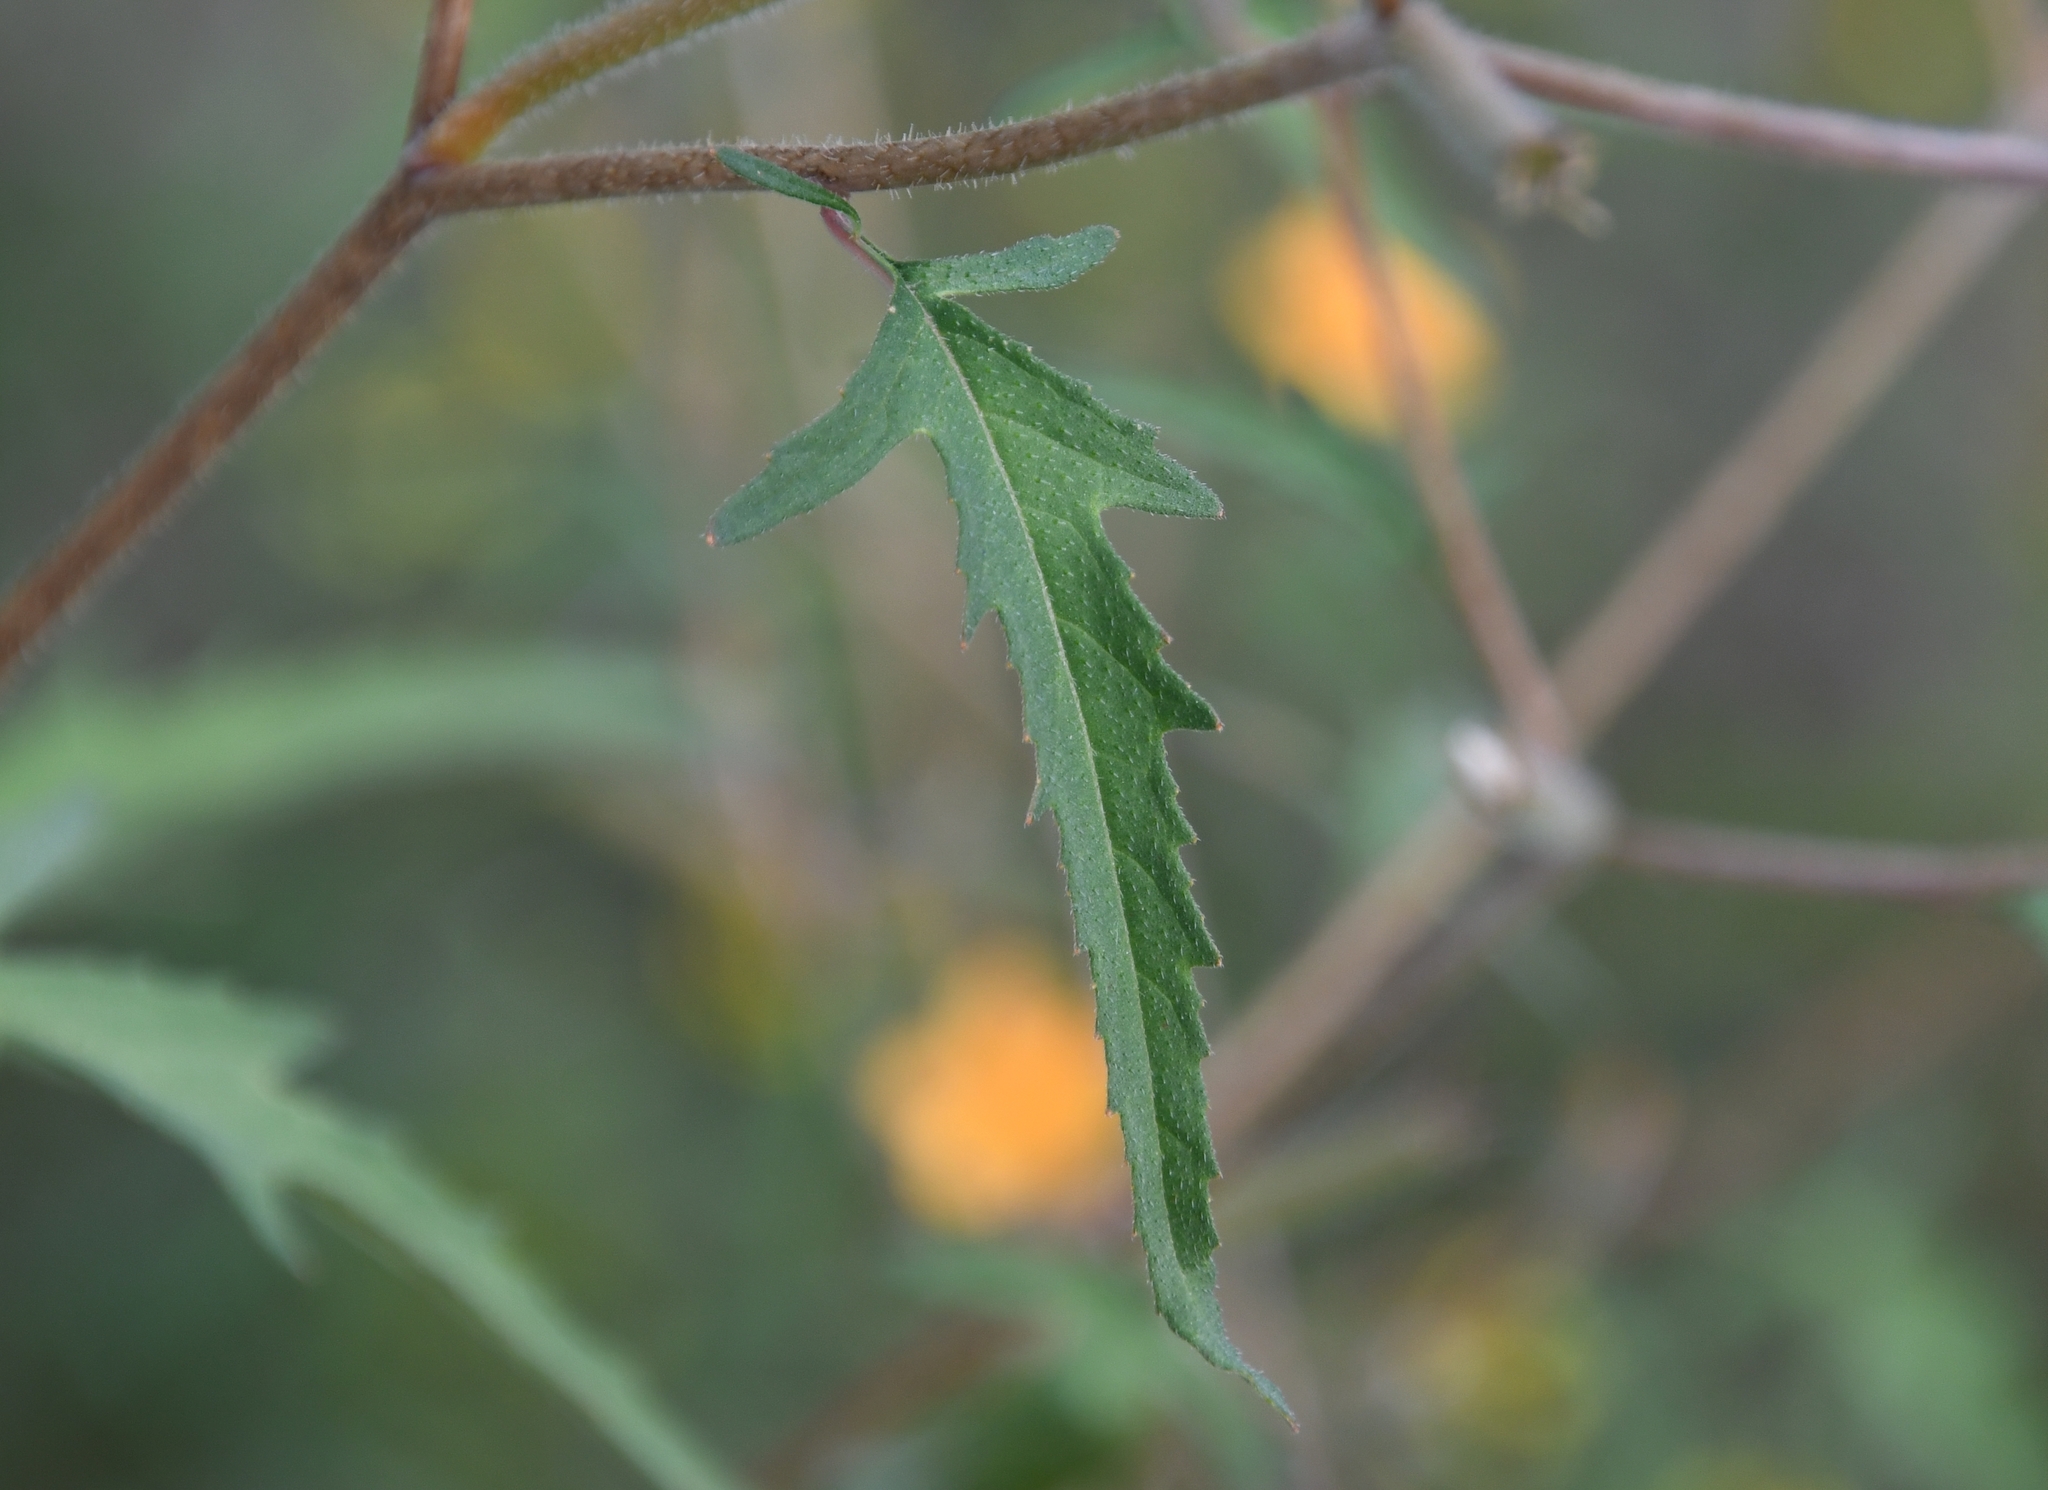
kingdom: Plantae
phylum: Tracheophyta
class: Magnoliopsida
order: Cornales
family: Loasaceae
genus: Mentzelia
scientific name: Mentzelia isolata
